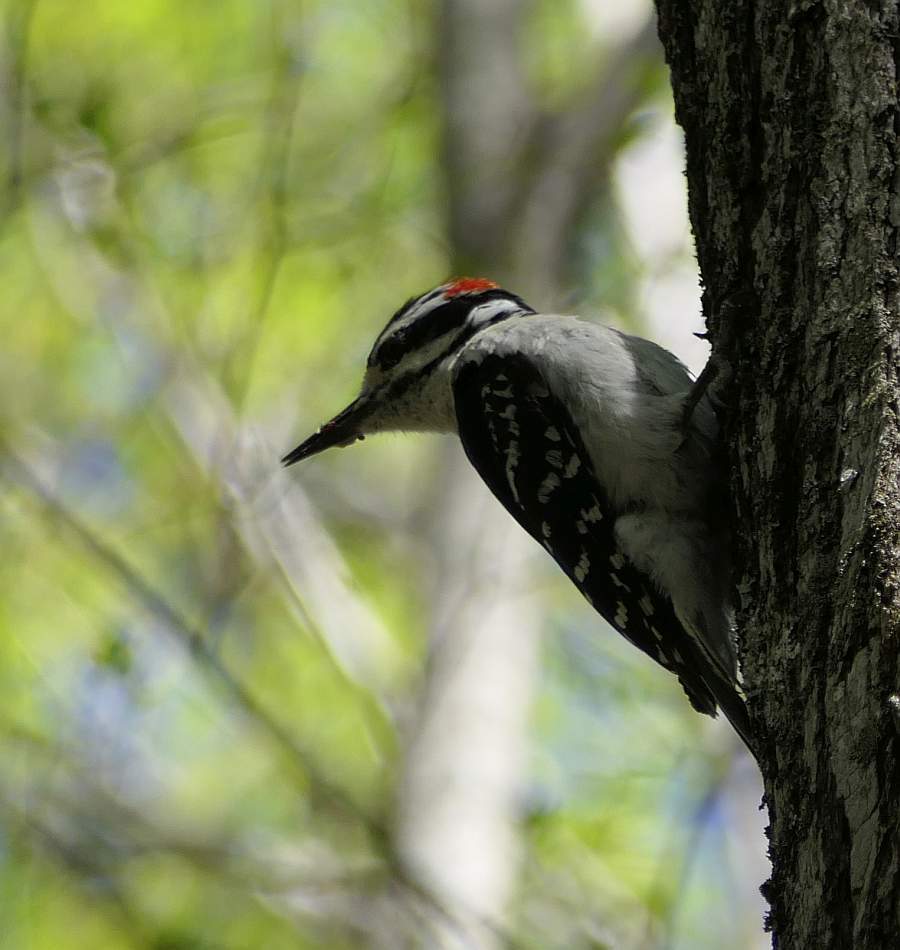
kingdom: Animalia
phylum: Chordata
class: Aves
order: Piciformes
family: Picidae
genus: Leuconotopicus
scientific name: Leuconotopicus villosus
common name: Hairy woodpecker
